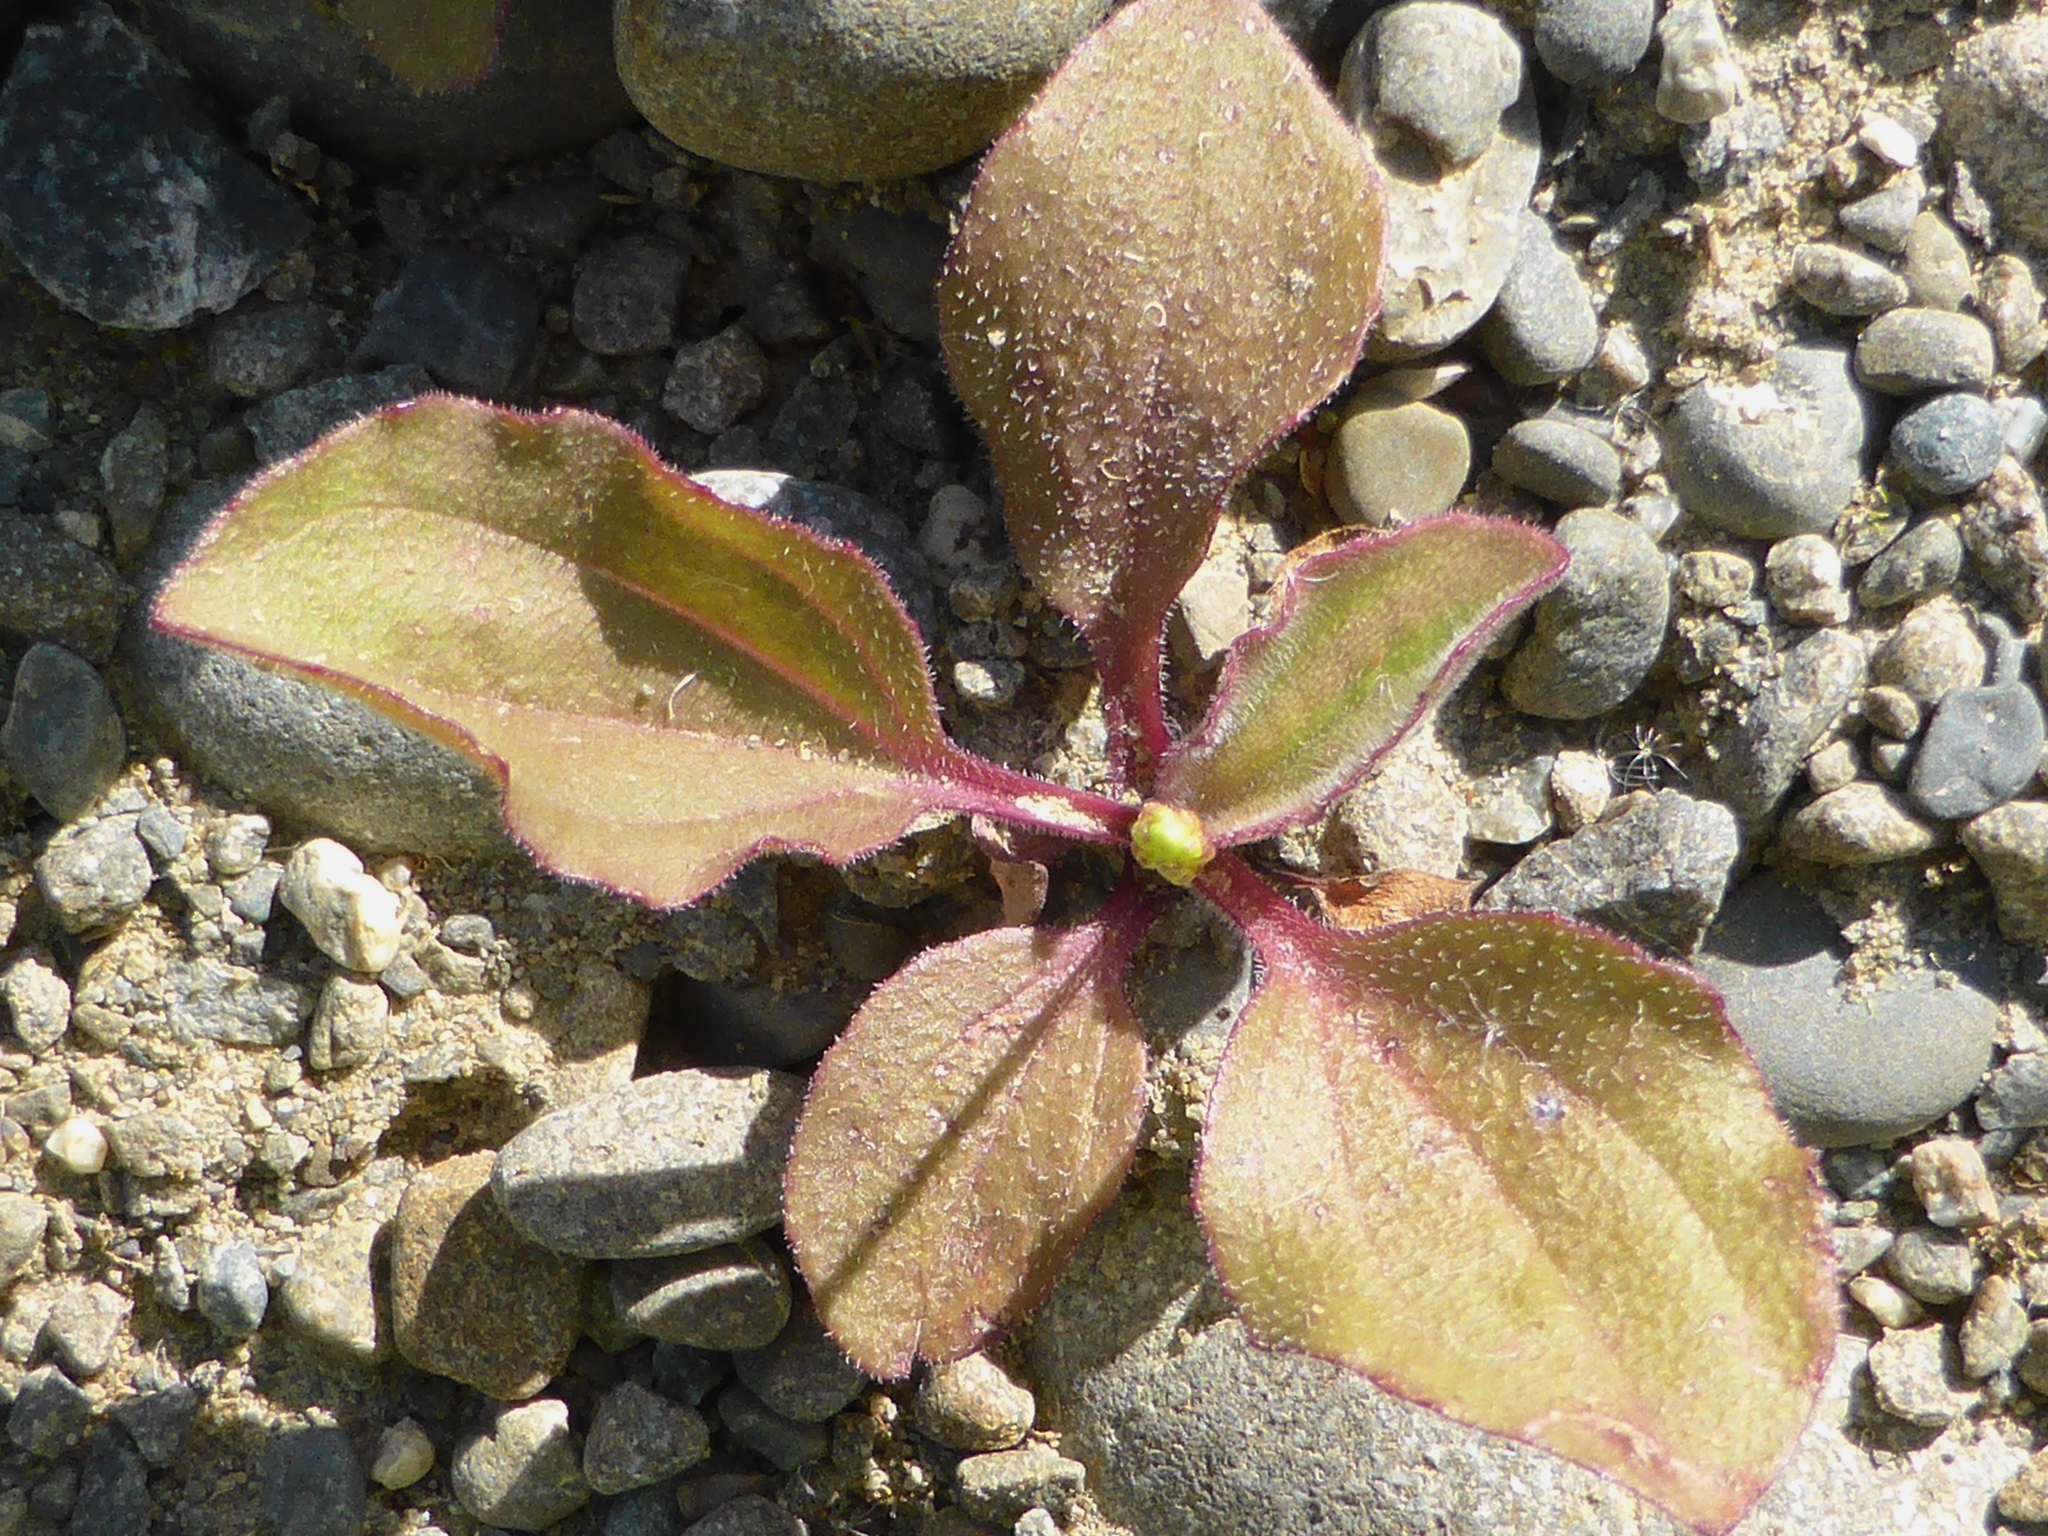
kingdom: Plantae
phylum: Tracheophyta
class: Magnoliopsida
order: Lamiales
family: Plantaginaceae
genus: Plantago
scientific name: Plantago major
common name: Common plantain
